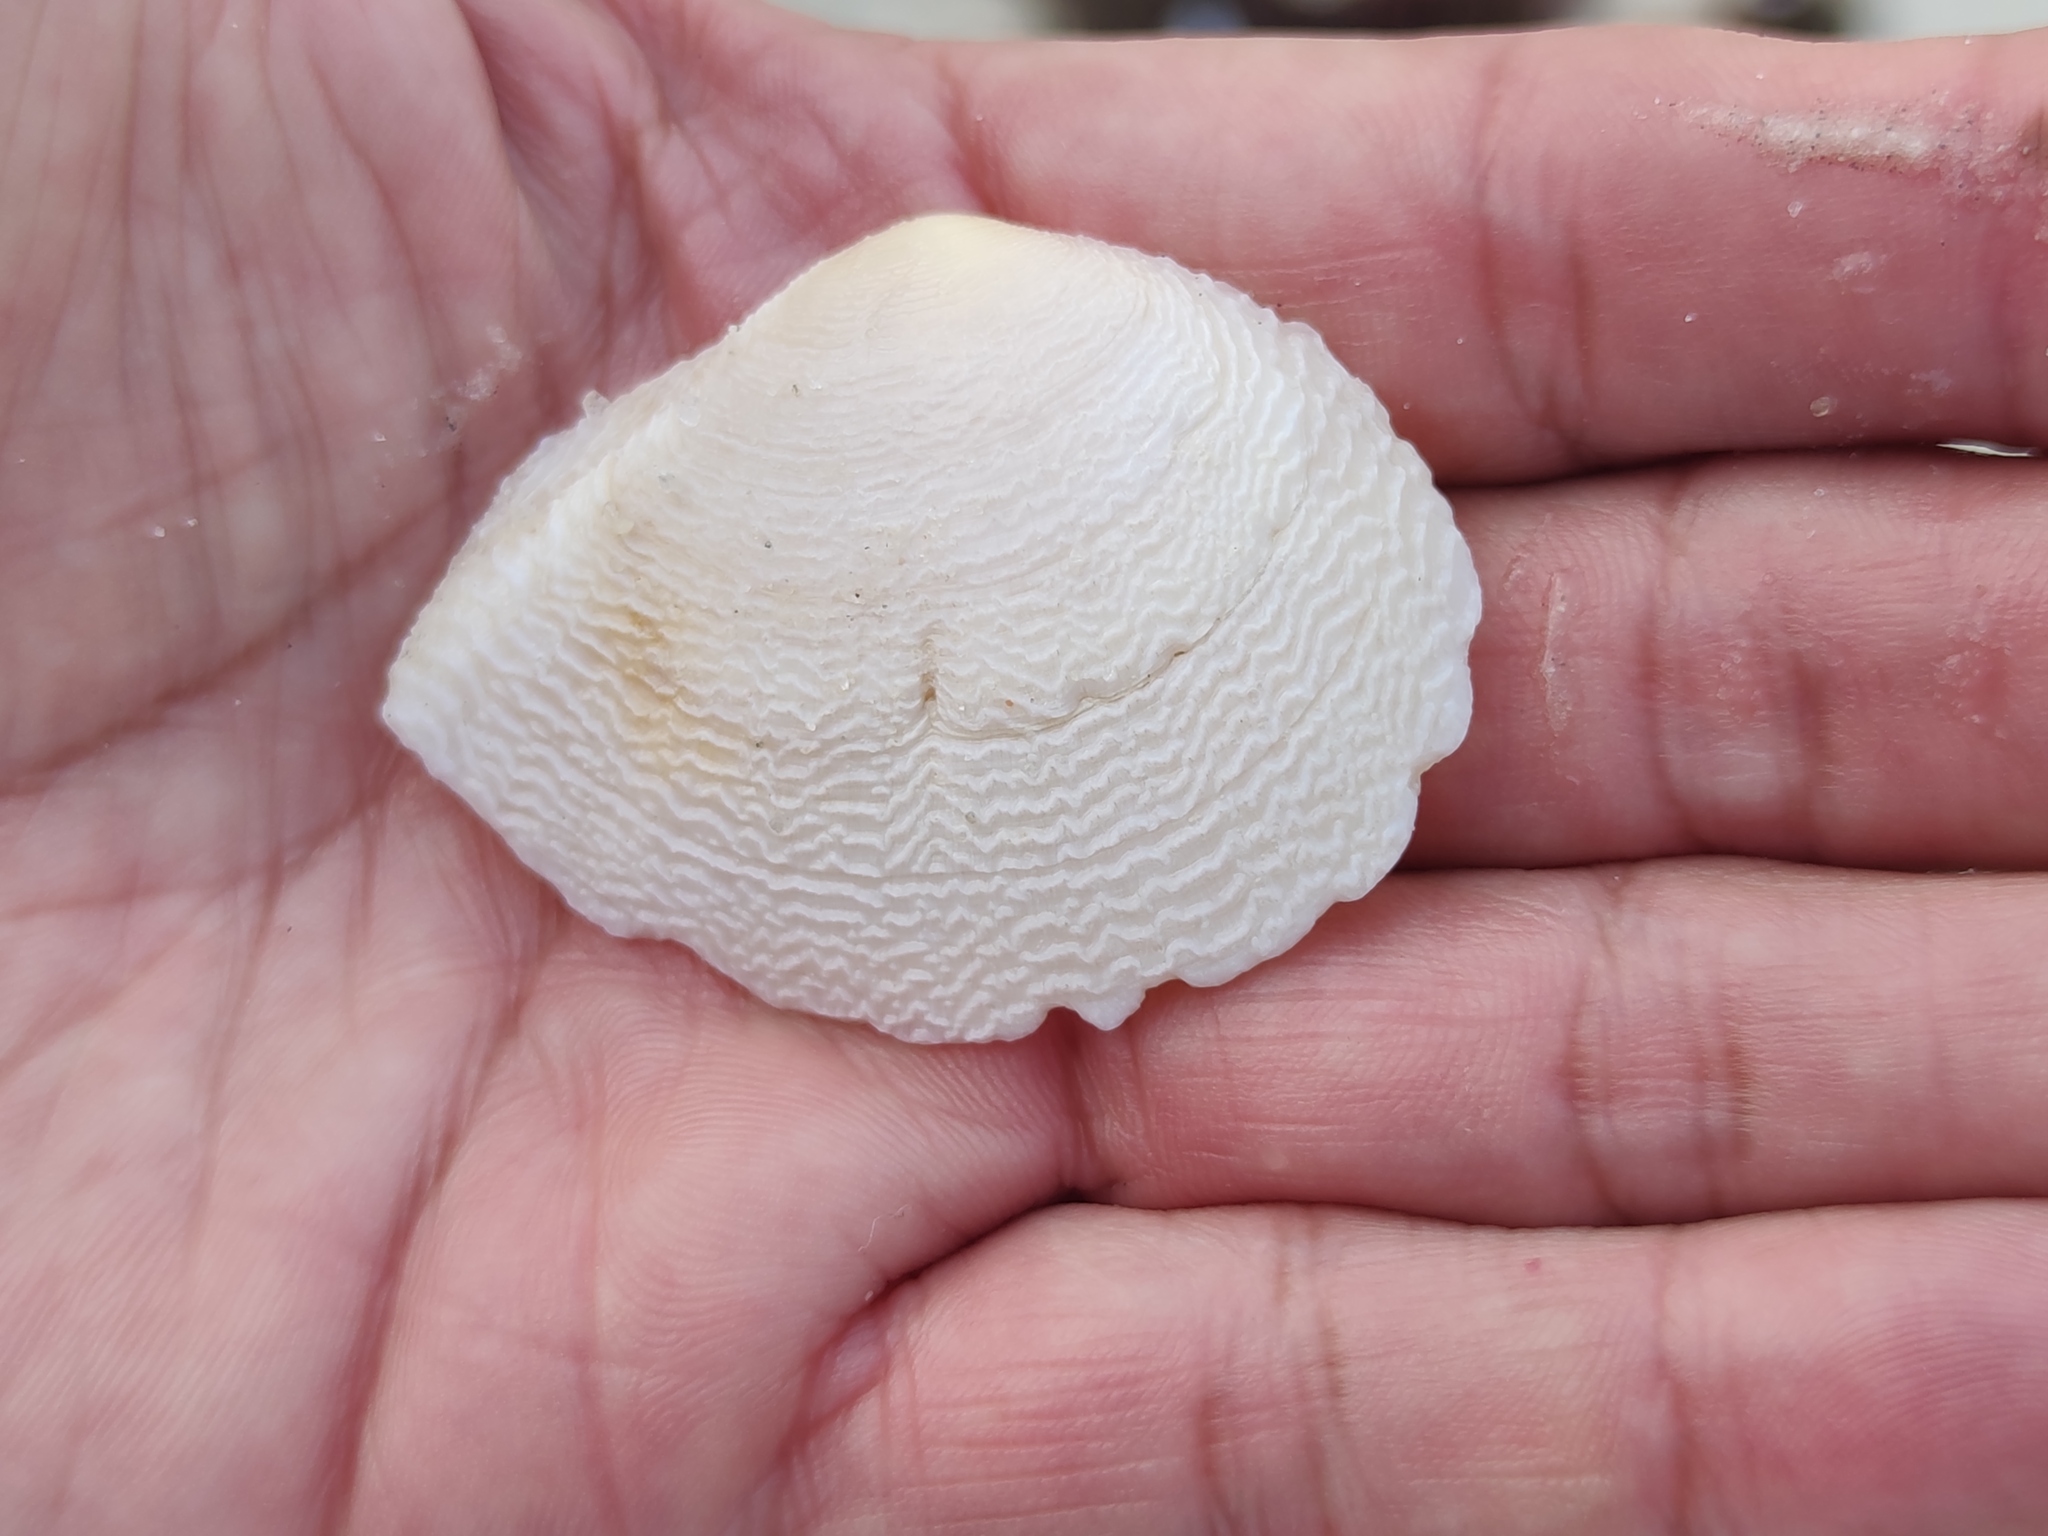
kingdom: Animalia
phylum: Mollusca
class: Bivalvia
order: Cardiida
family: Tellinidae
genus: Quidnipagus
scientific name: Quidnipagus palatam
